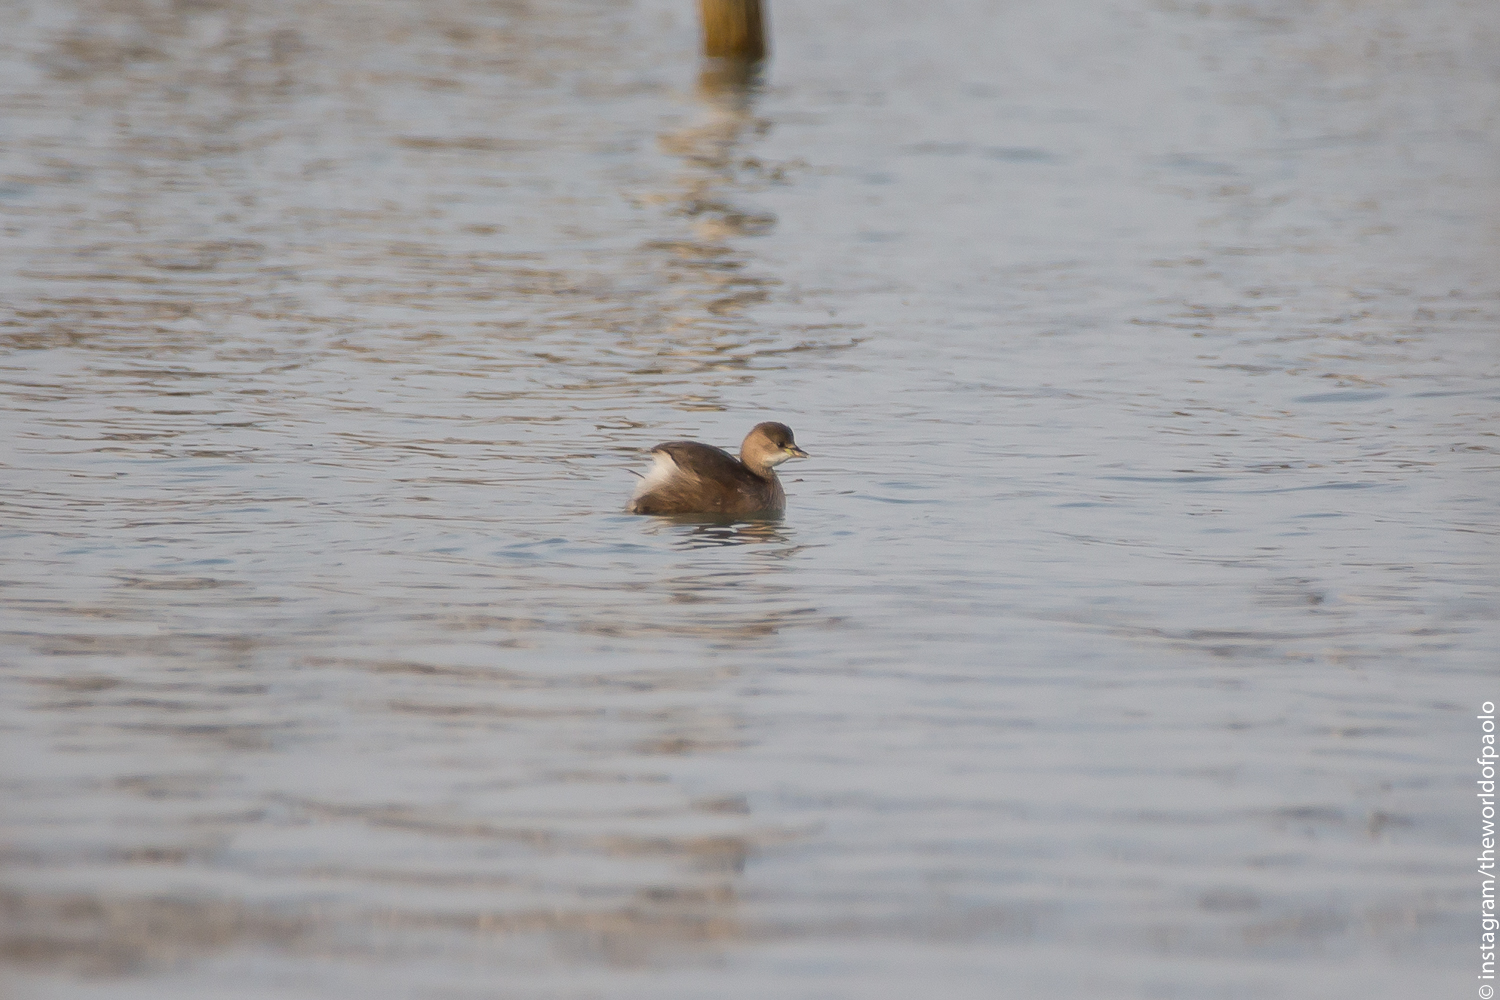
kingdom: Animalia
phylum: Chordata
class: Aves
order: Podicipediformes
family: Podicipedidae
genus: Tachybaptus
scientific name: Tachybaptus ruficollis
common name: Little grebe
